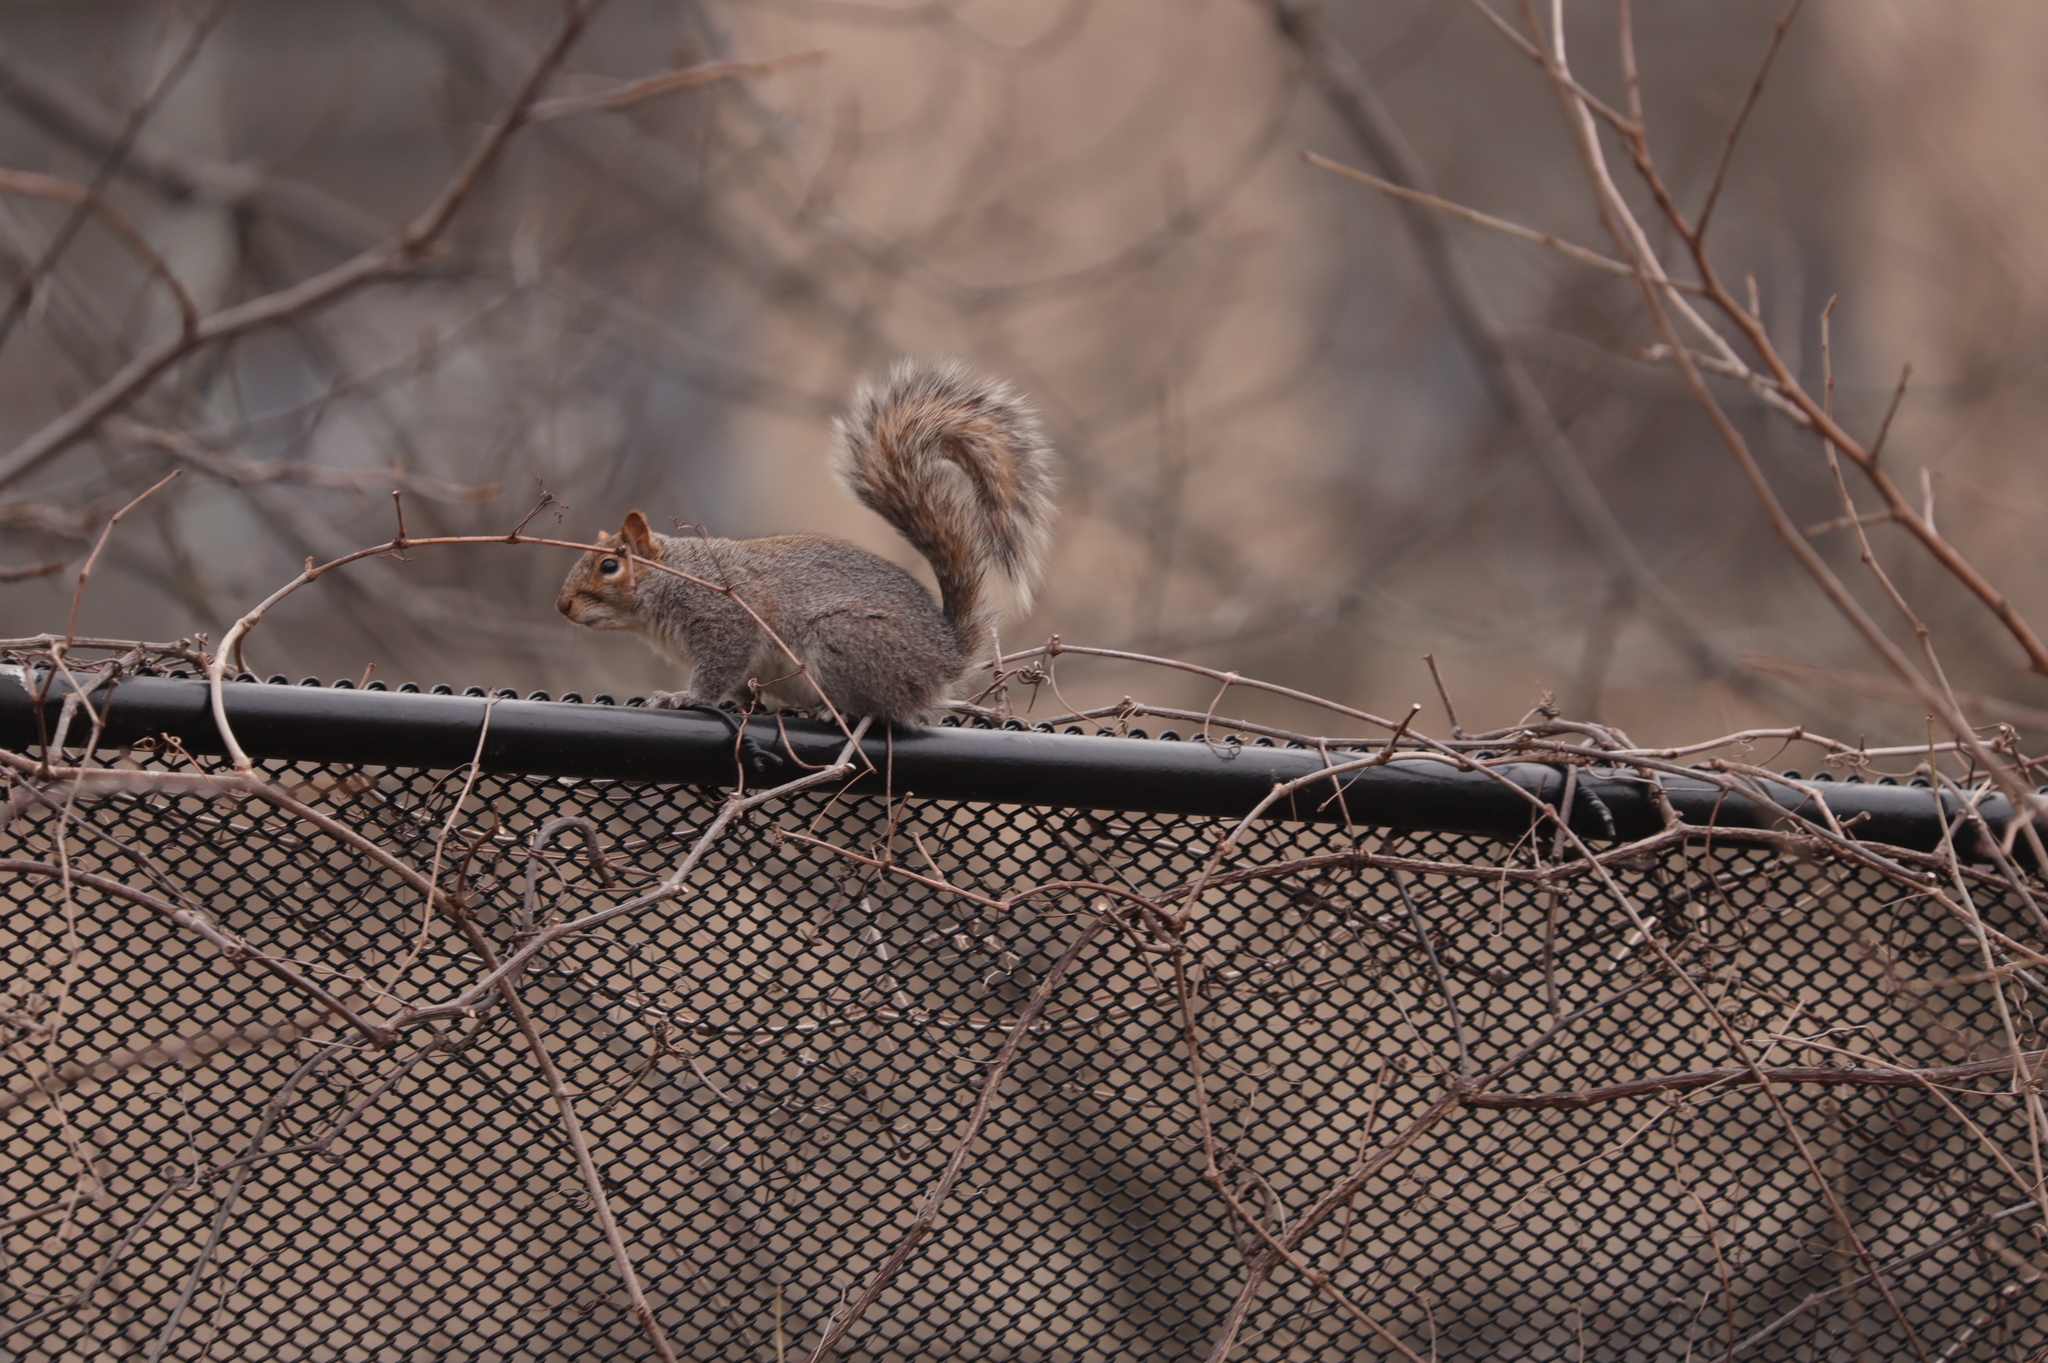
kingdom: Animalia
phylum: Chordata
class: Mammalia
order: Rodentia
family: Sciuridae
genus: Sciurus
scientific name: Sciurus carolinensis
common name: Eastern gray squirrel
